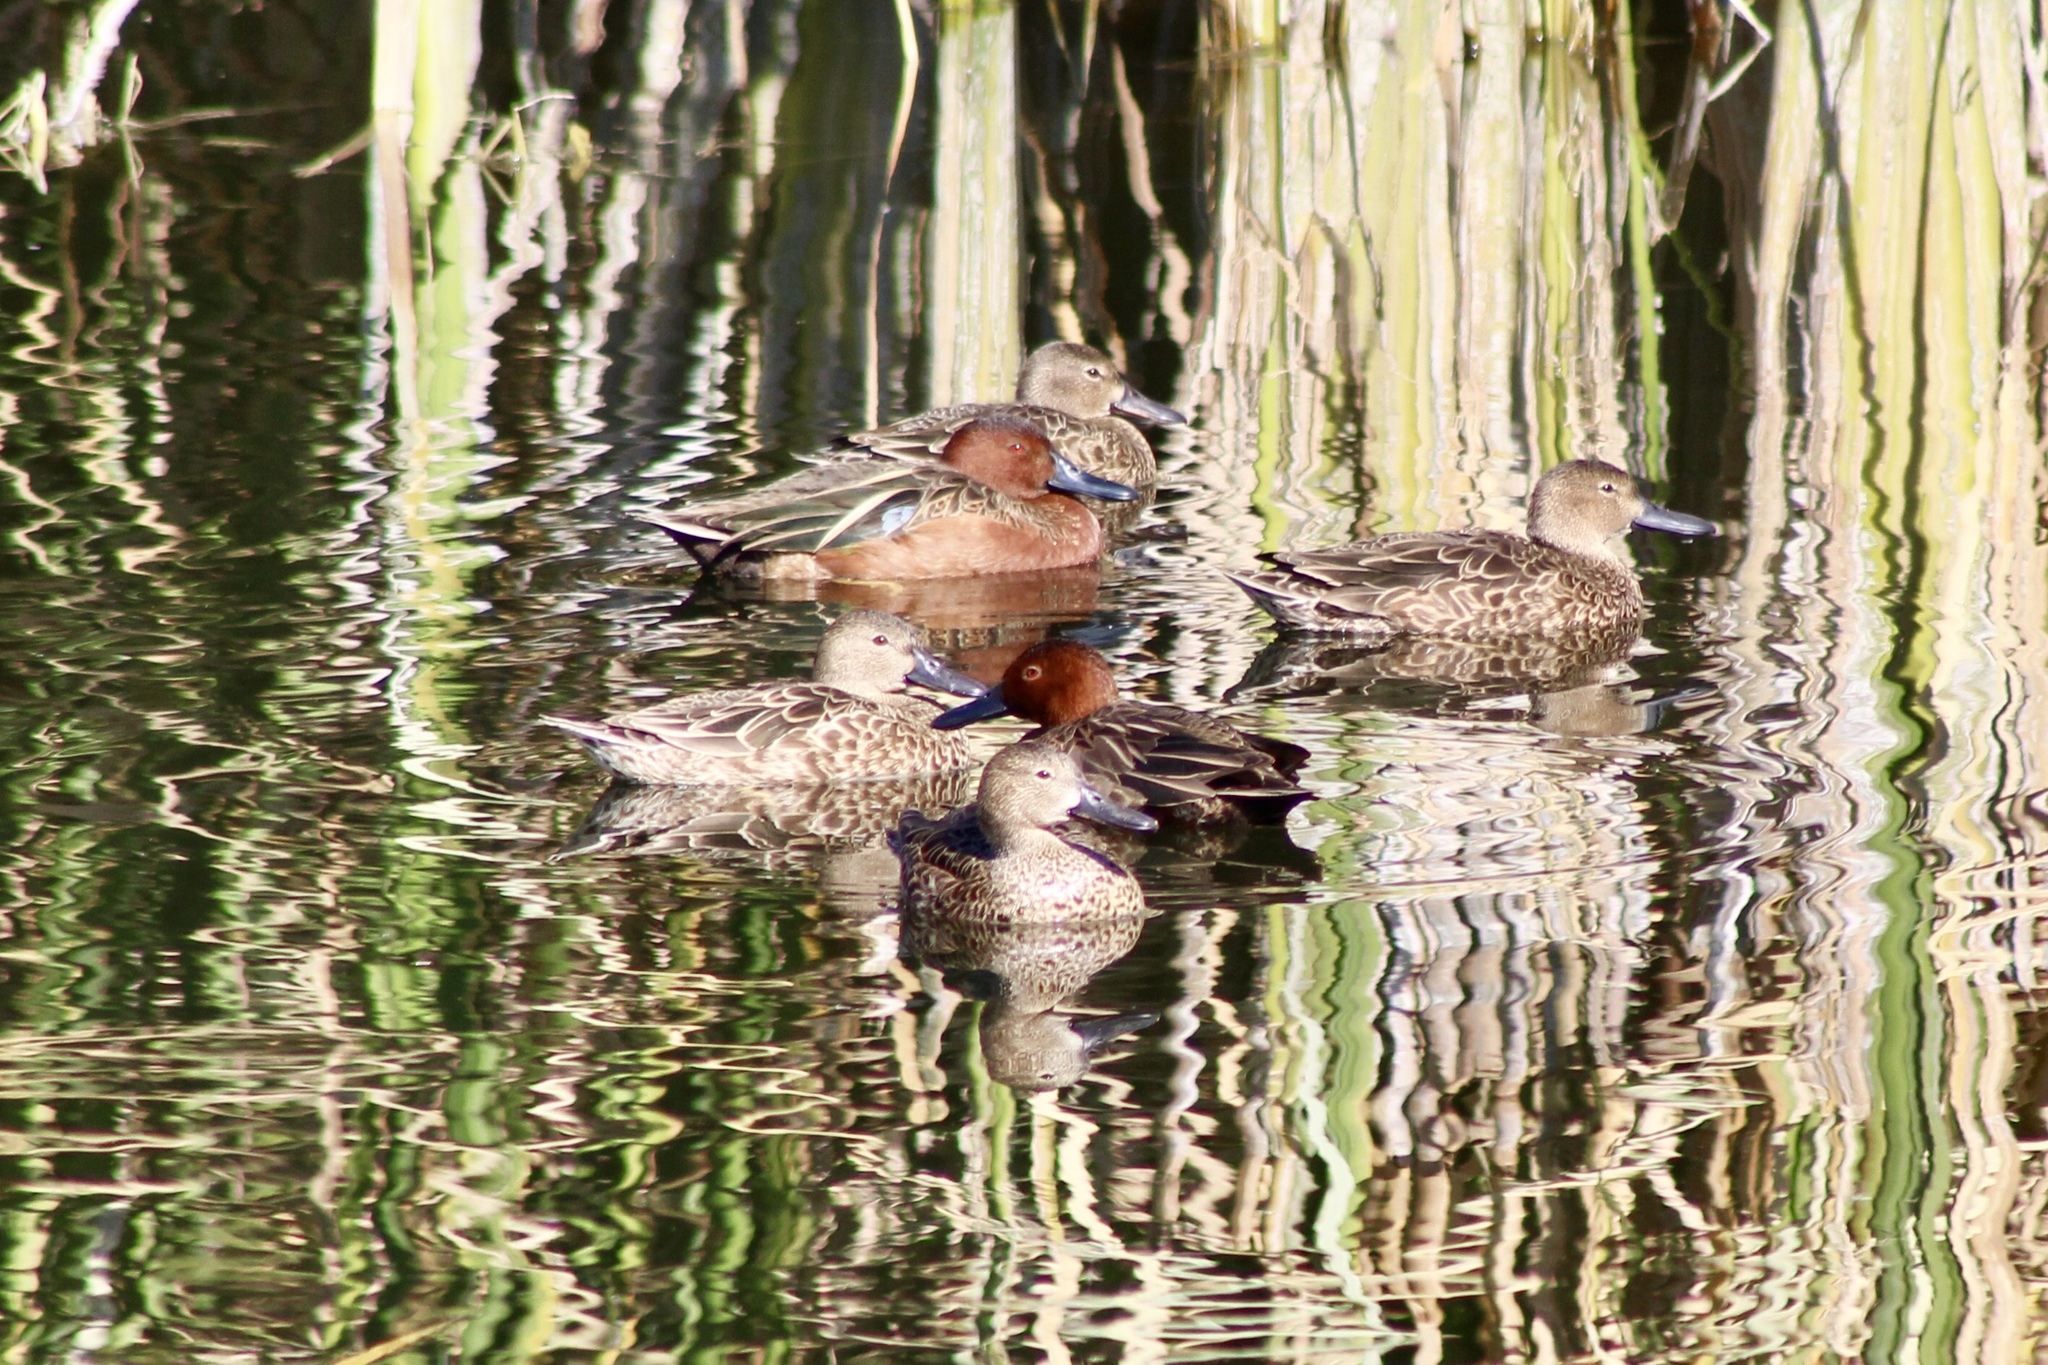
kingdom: Animalia
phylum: Chordata
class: Aves
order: Anseriformes
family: Anatidae
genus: Spatula
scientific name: Spatula cyanoptera
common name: Cinnamon teal
